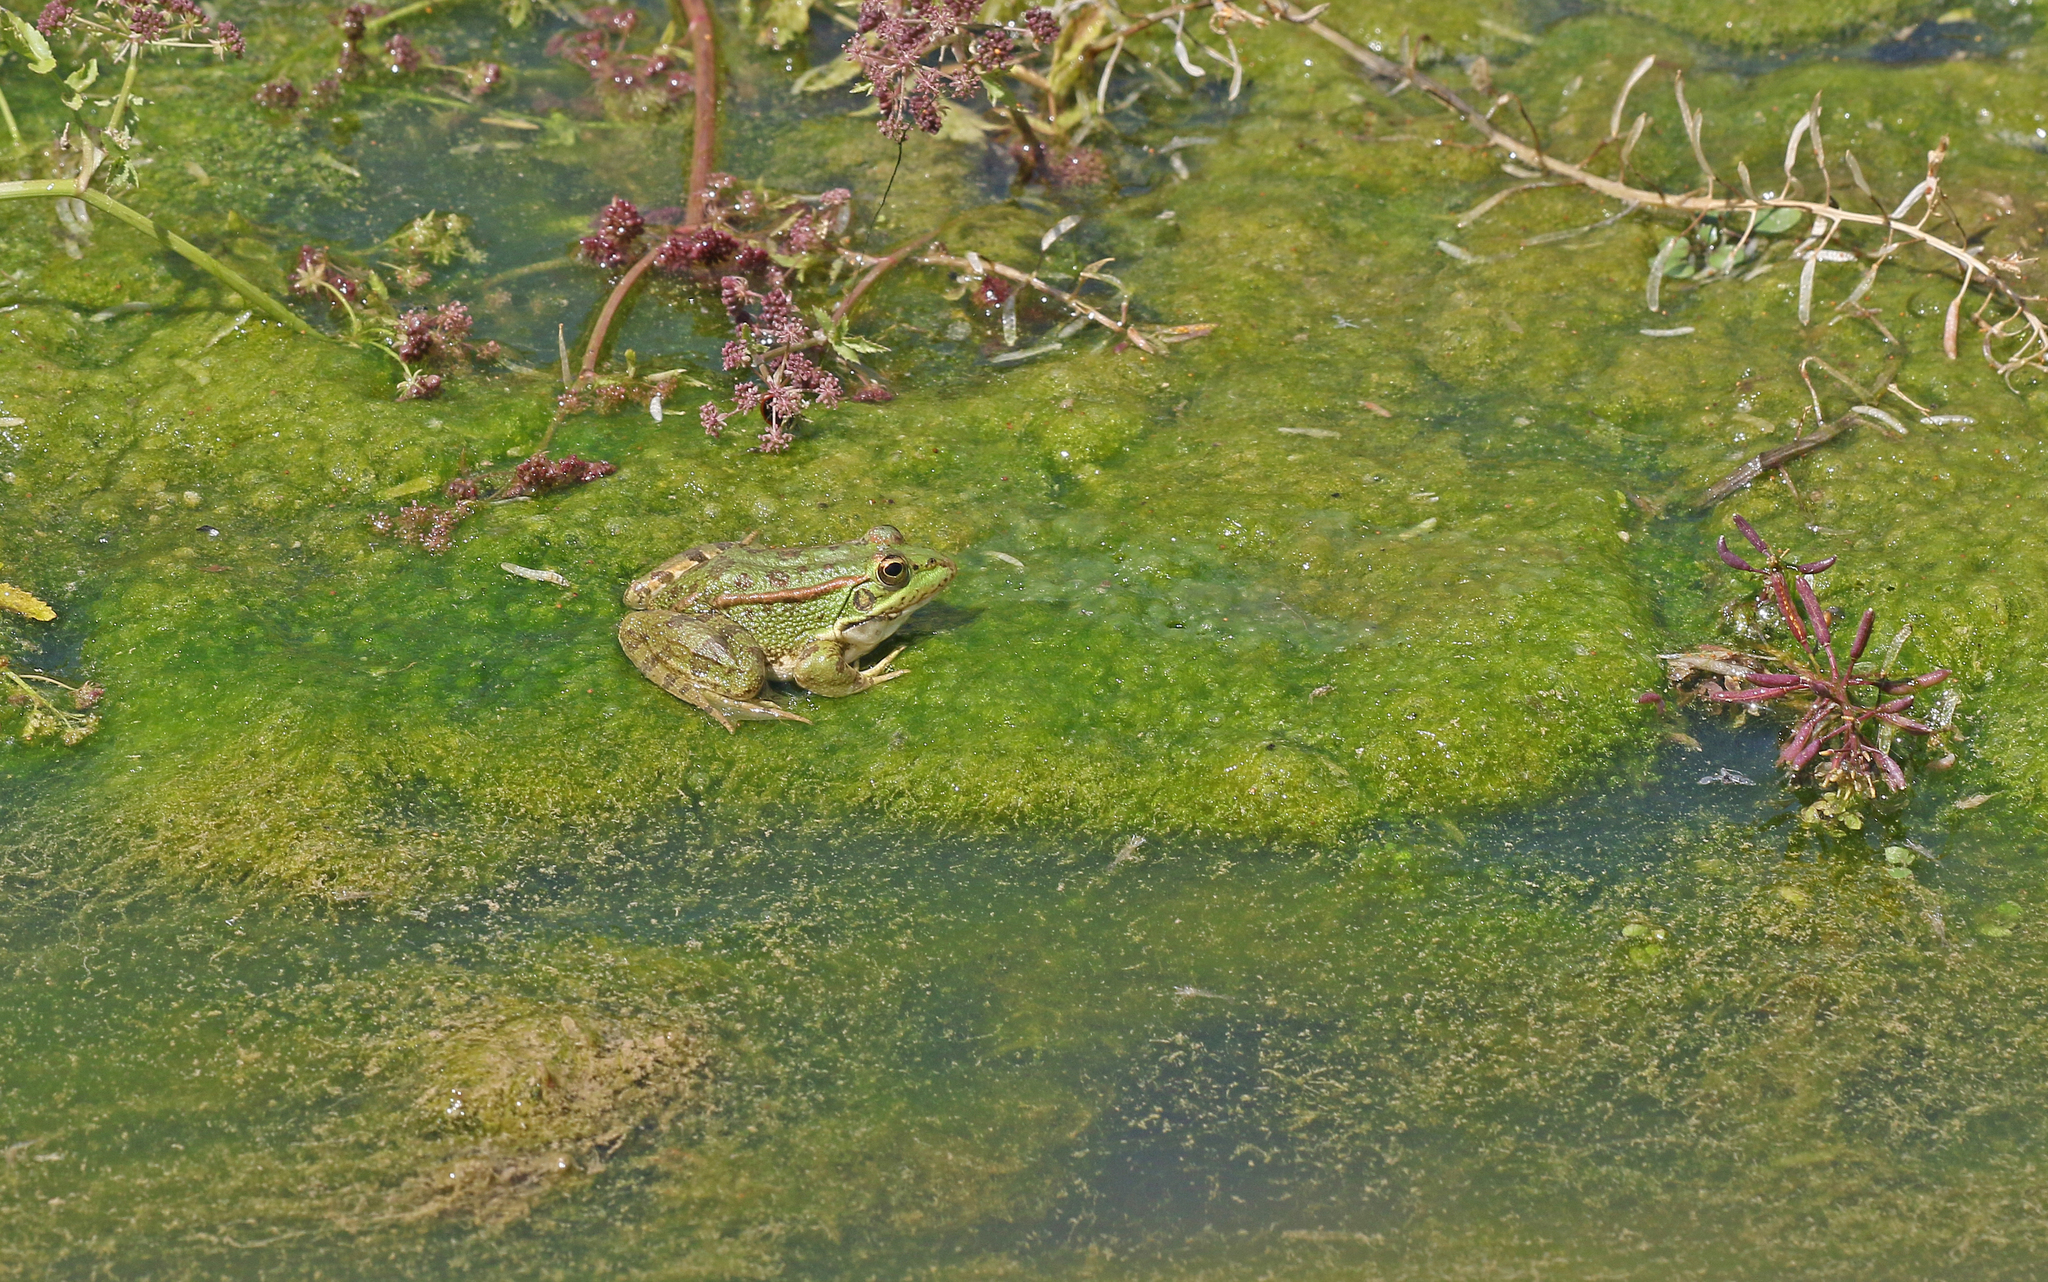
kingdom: Animalia
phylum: Chordata
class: Amphibia
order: Anura
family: Ranidae
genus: Pelophylax
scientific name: Pelophylax perezi
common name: Perez's frog
